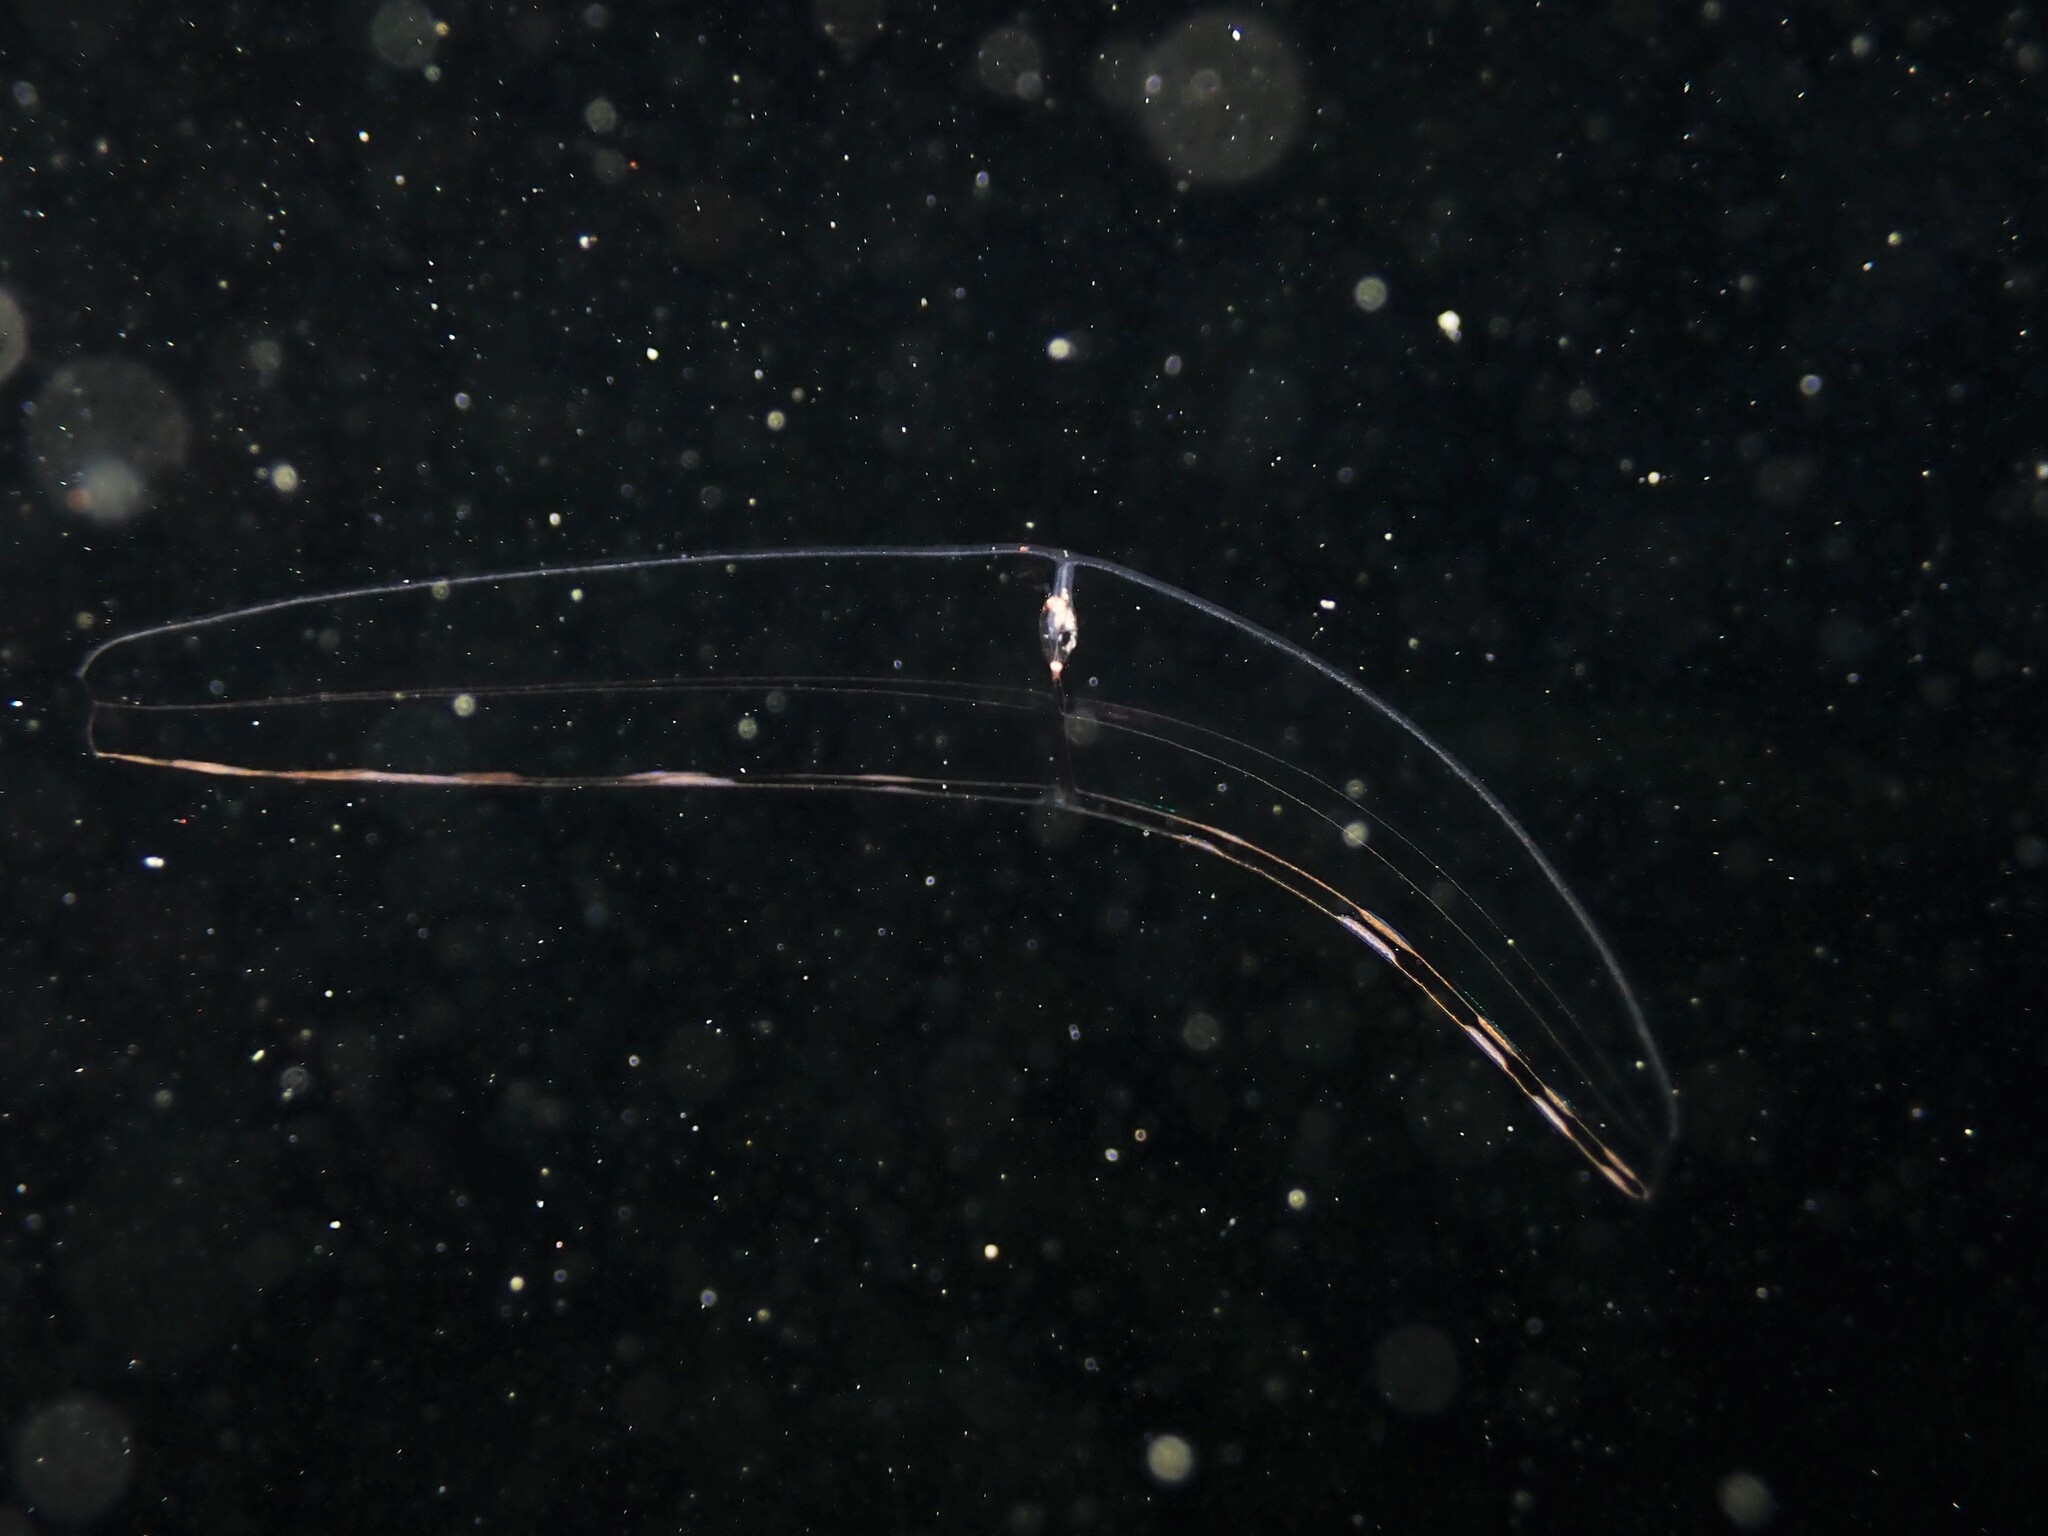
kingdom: Animalia
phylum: Ctenophora
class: Tentaculata
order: Cestida
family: Cestidae
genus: Velamen
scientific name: Velamen parallelum
